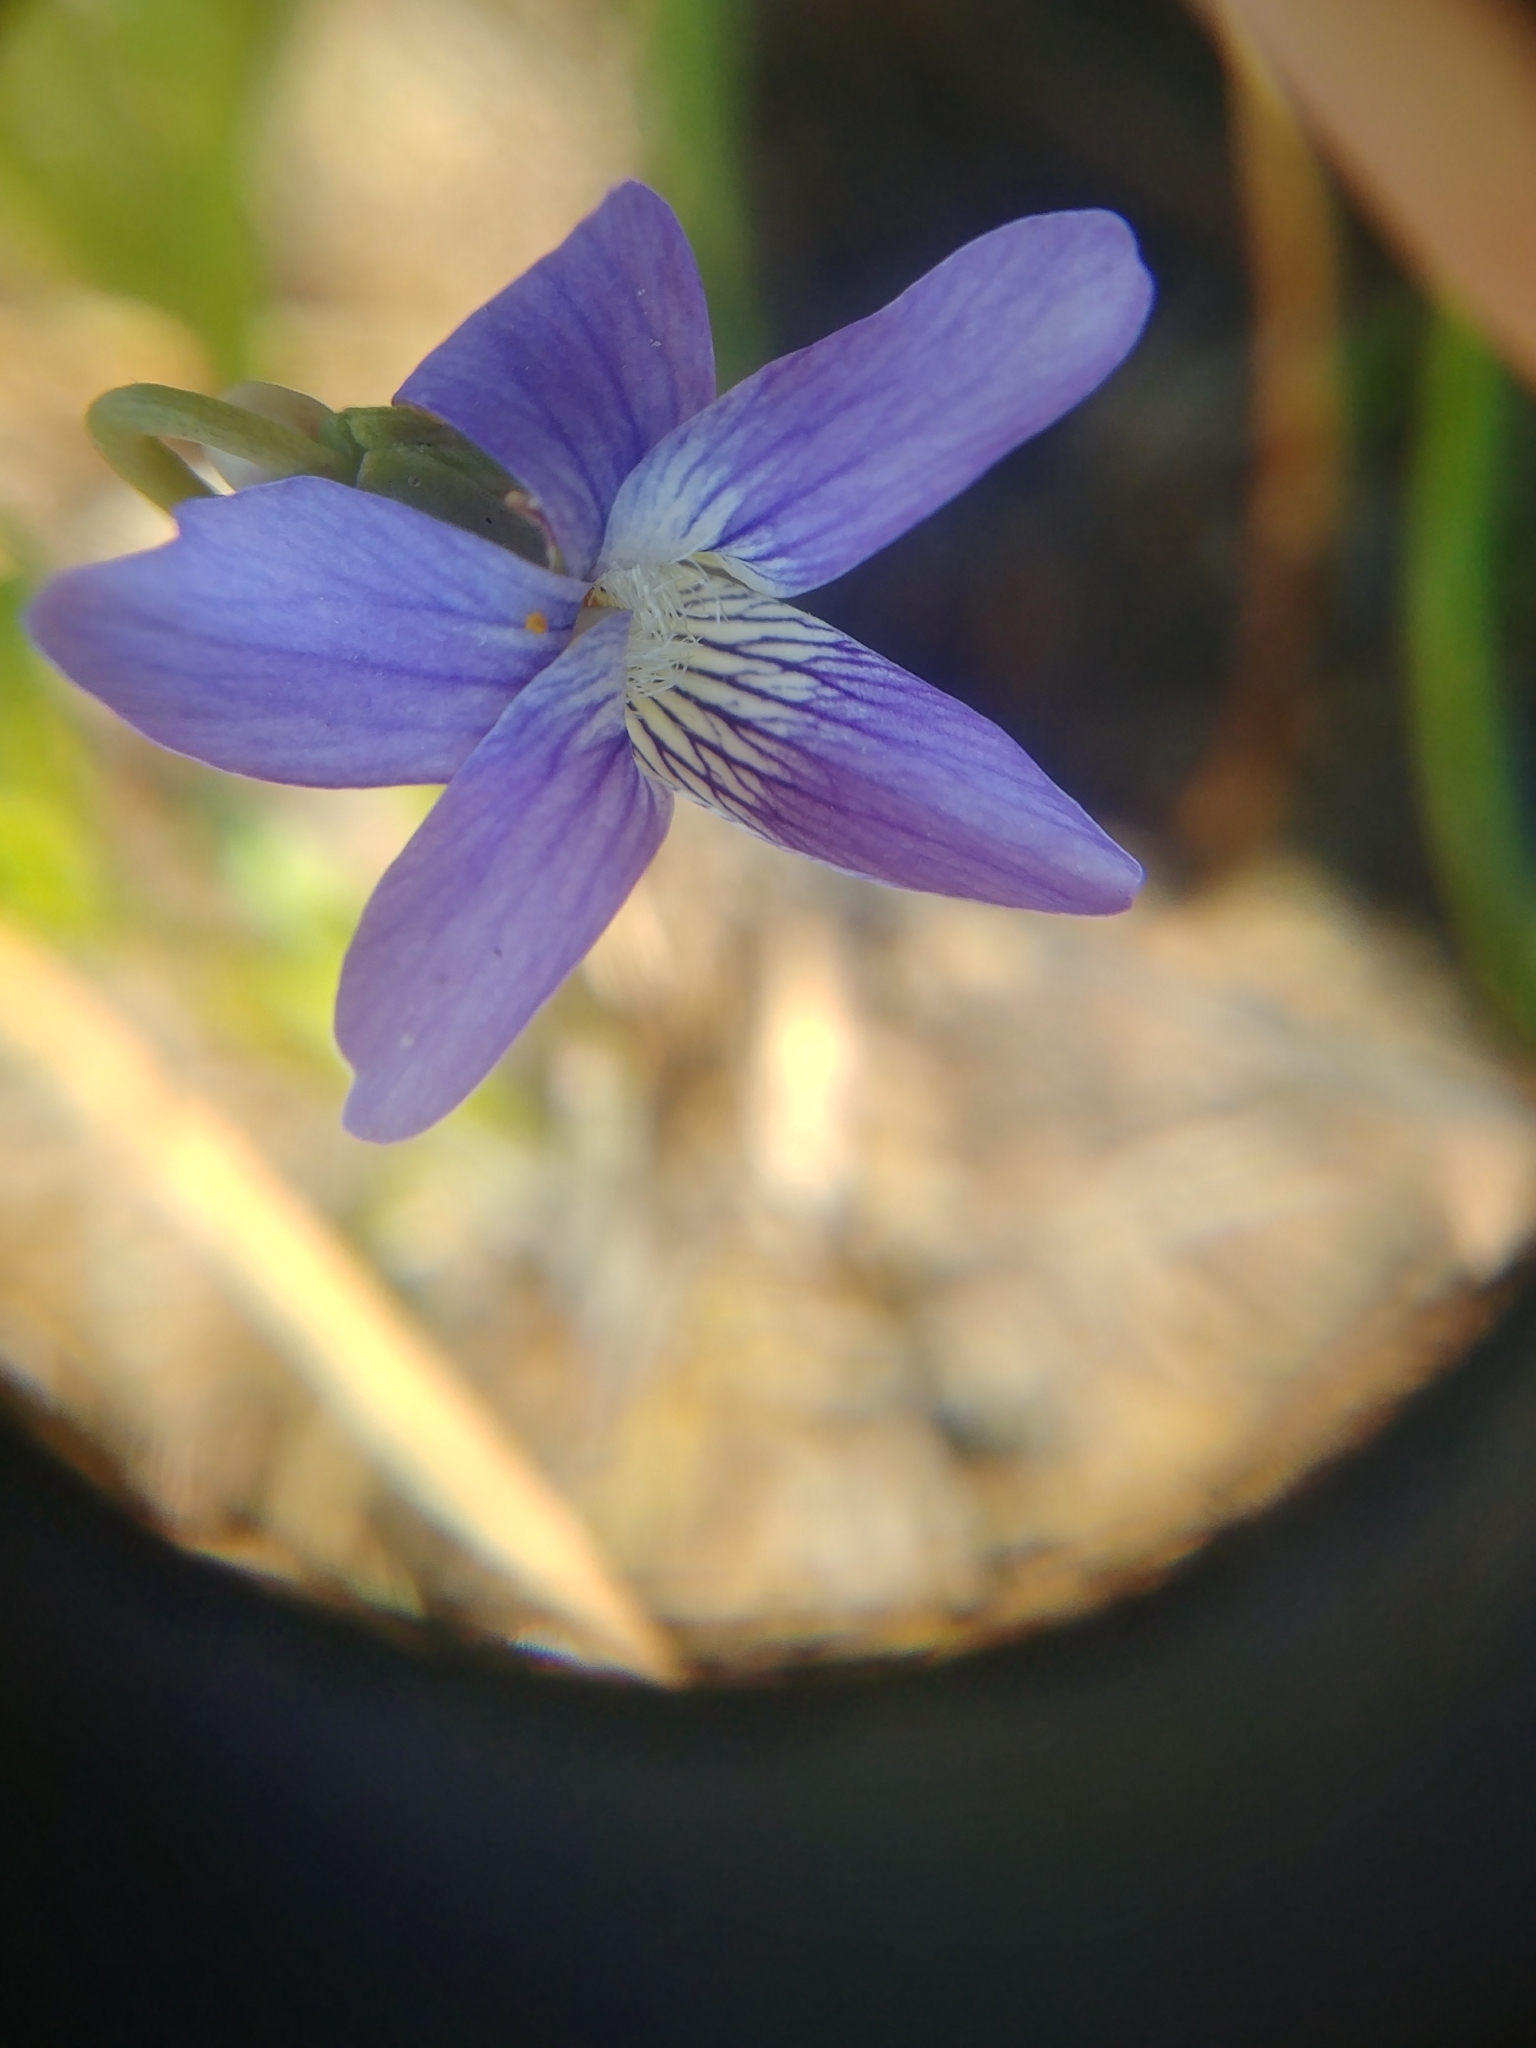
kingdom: Plantae
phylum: Tracheophyta
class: Magnoliopsida
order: Malpighiales
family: Violaceae
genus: Viola
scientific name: Viola pedatifida
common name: Prairie violet
